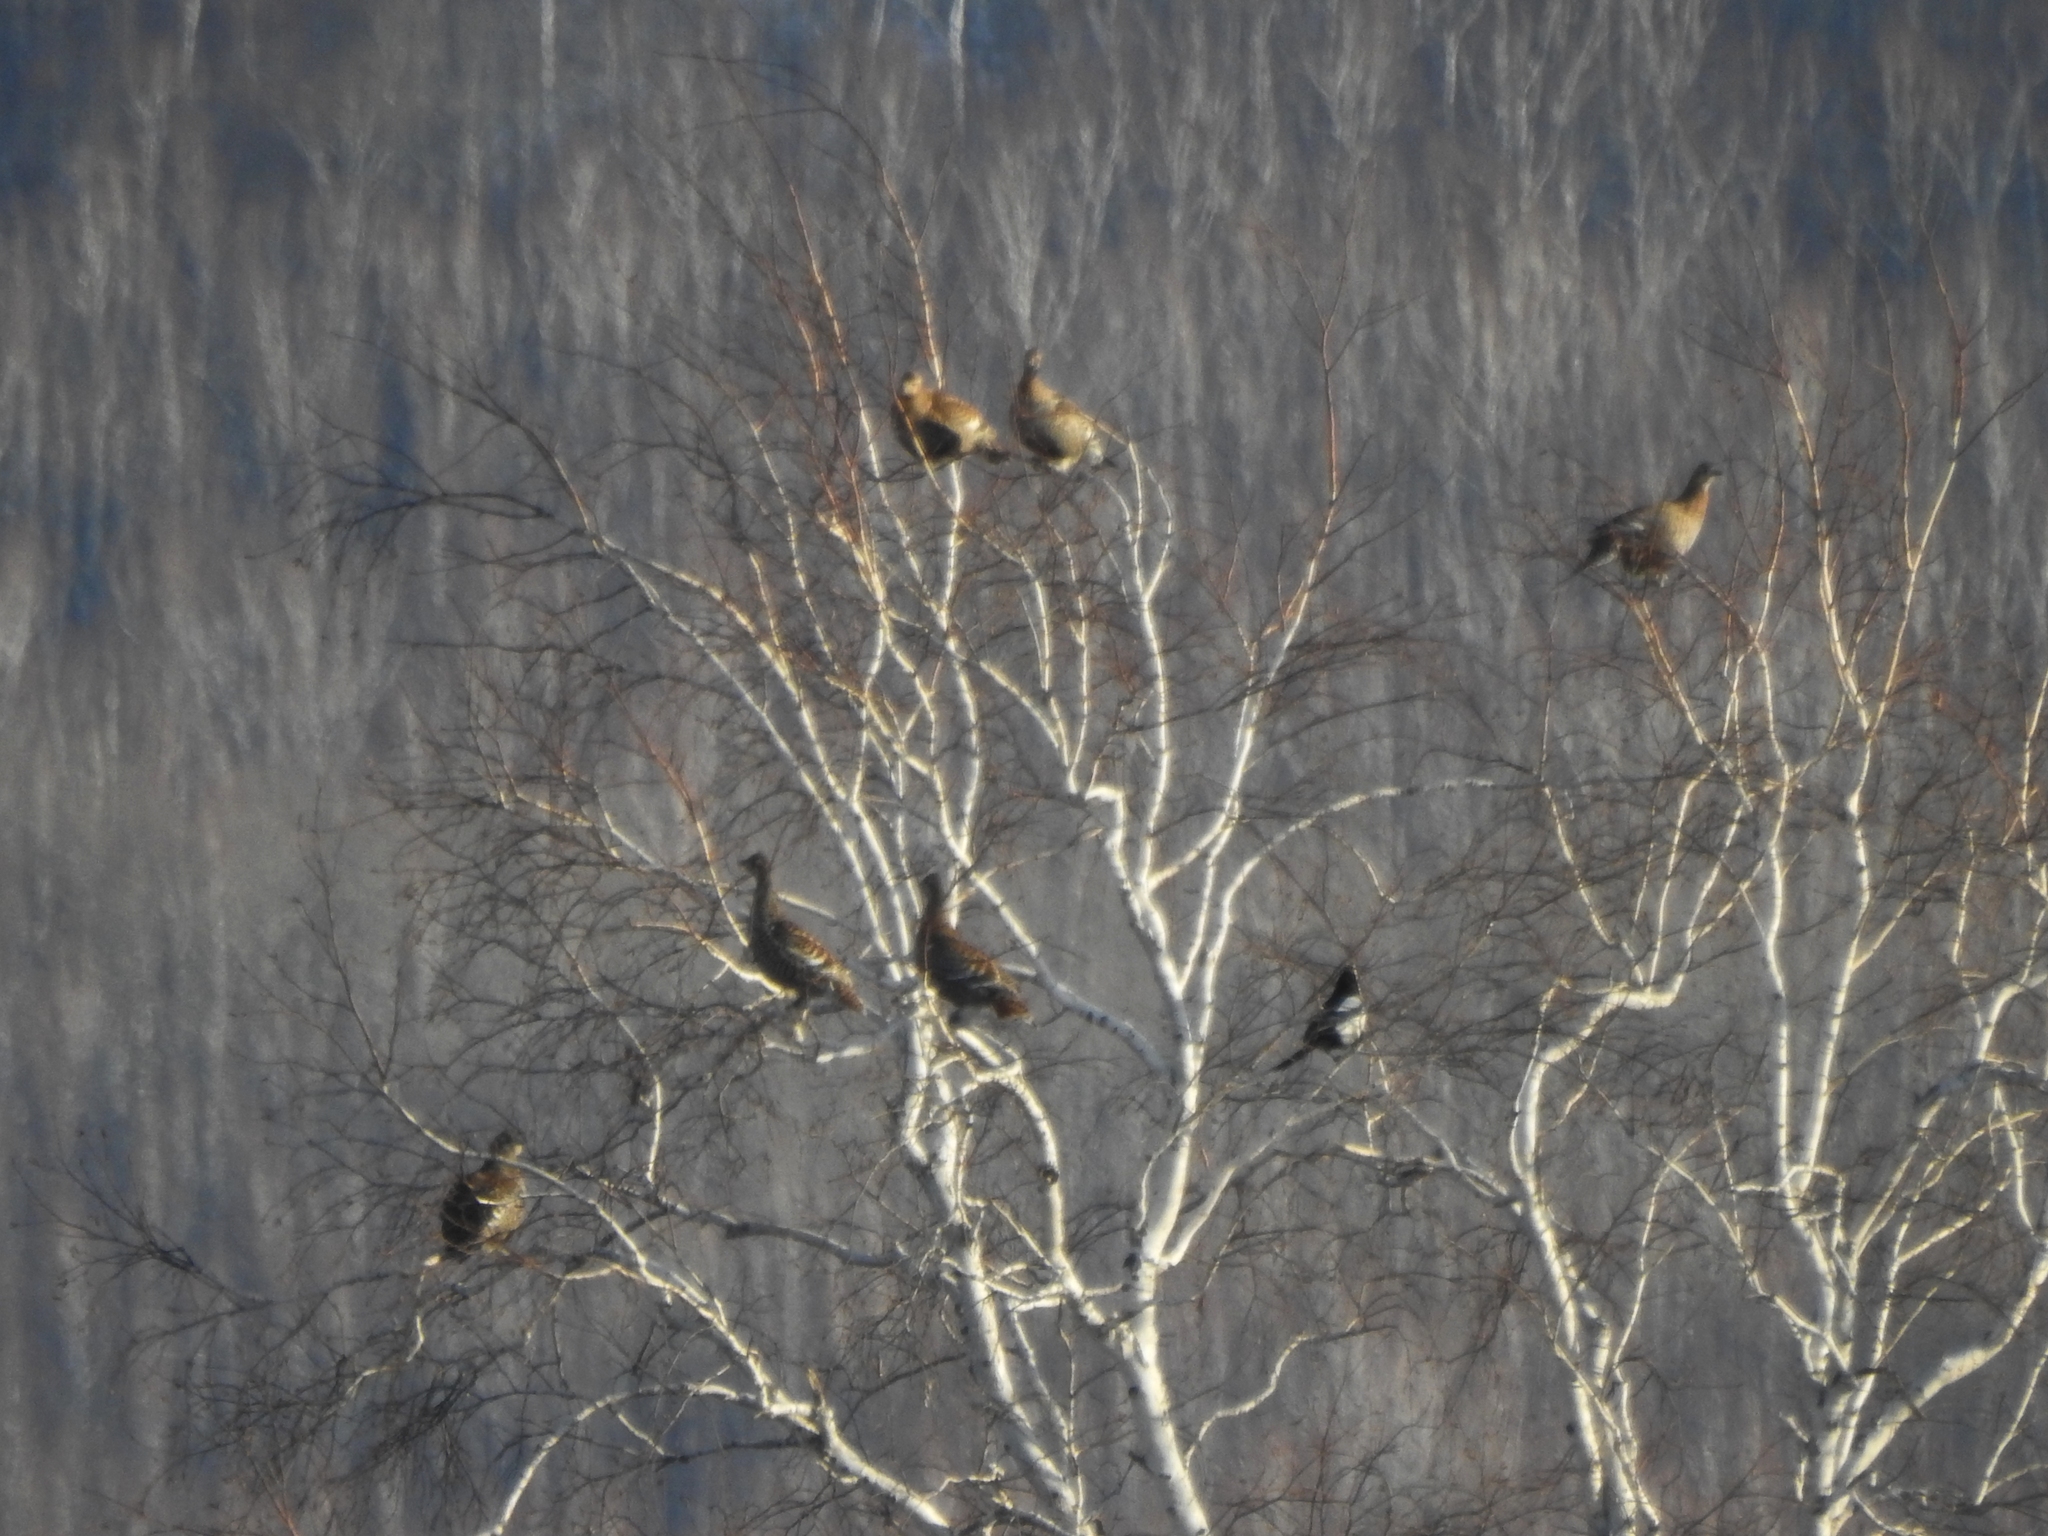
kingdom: Animalia
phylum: Chordata
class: Aves
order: Galliformes
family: Phasianidae
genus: Lyrurus
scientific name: Lyrurus tetrix
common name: Black grouse
